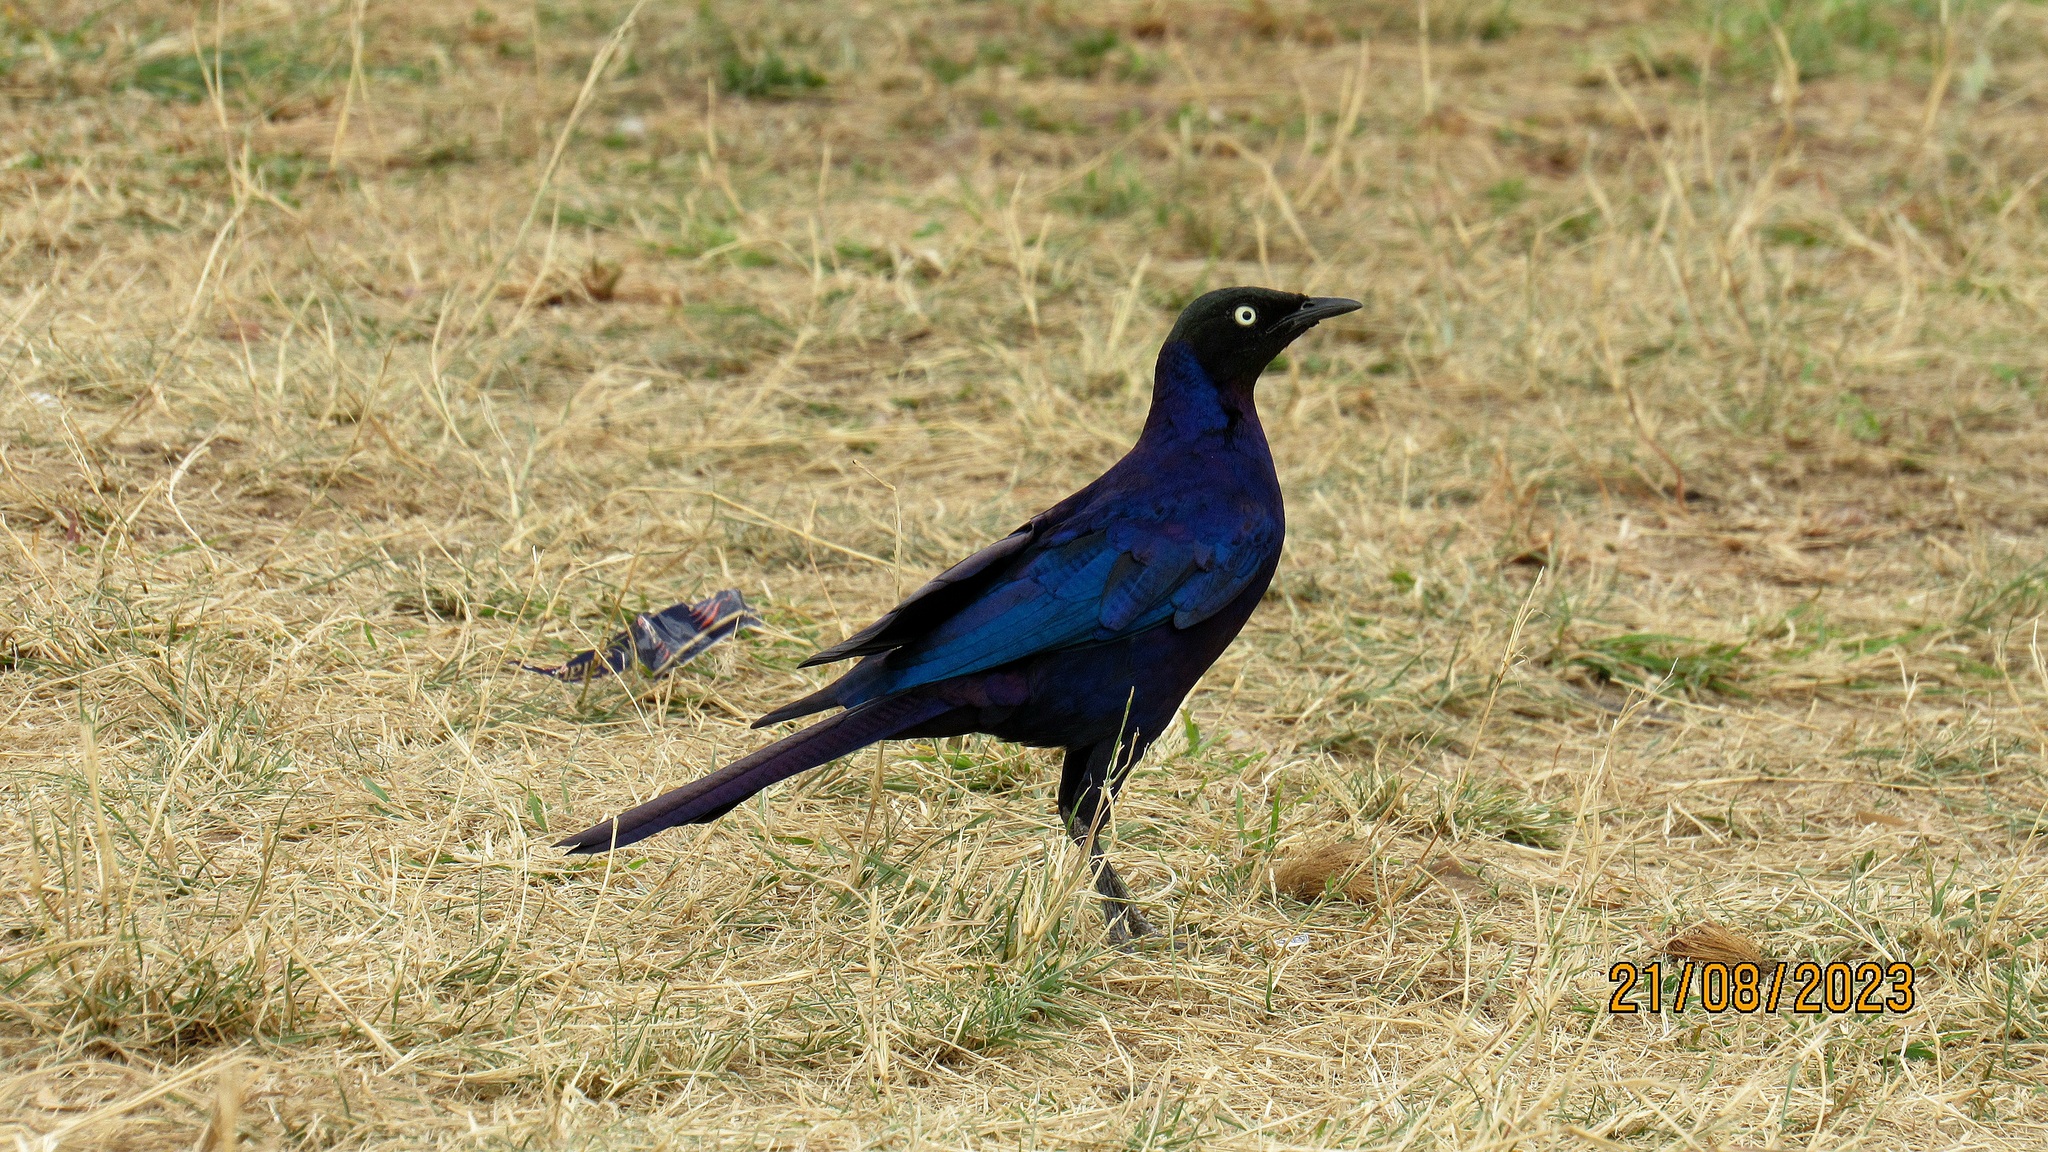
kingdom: Animalia
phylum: Chordata
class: Aves
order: Passeriformes
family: Sturnidae
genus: Lamprotornis
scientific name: Lamprotornis purpuroptera
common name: Rüppell's starling
